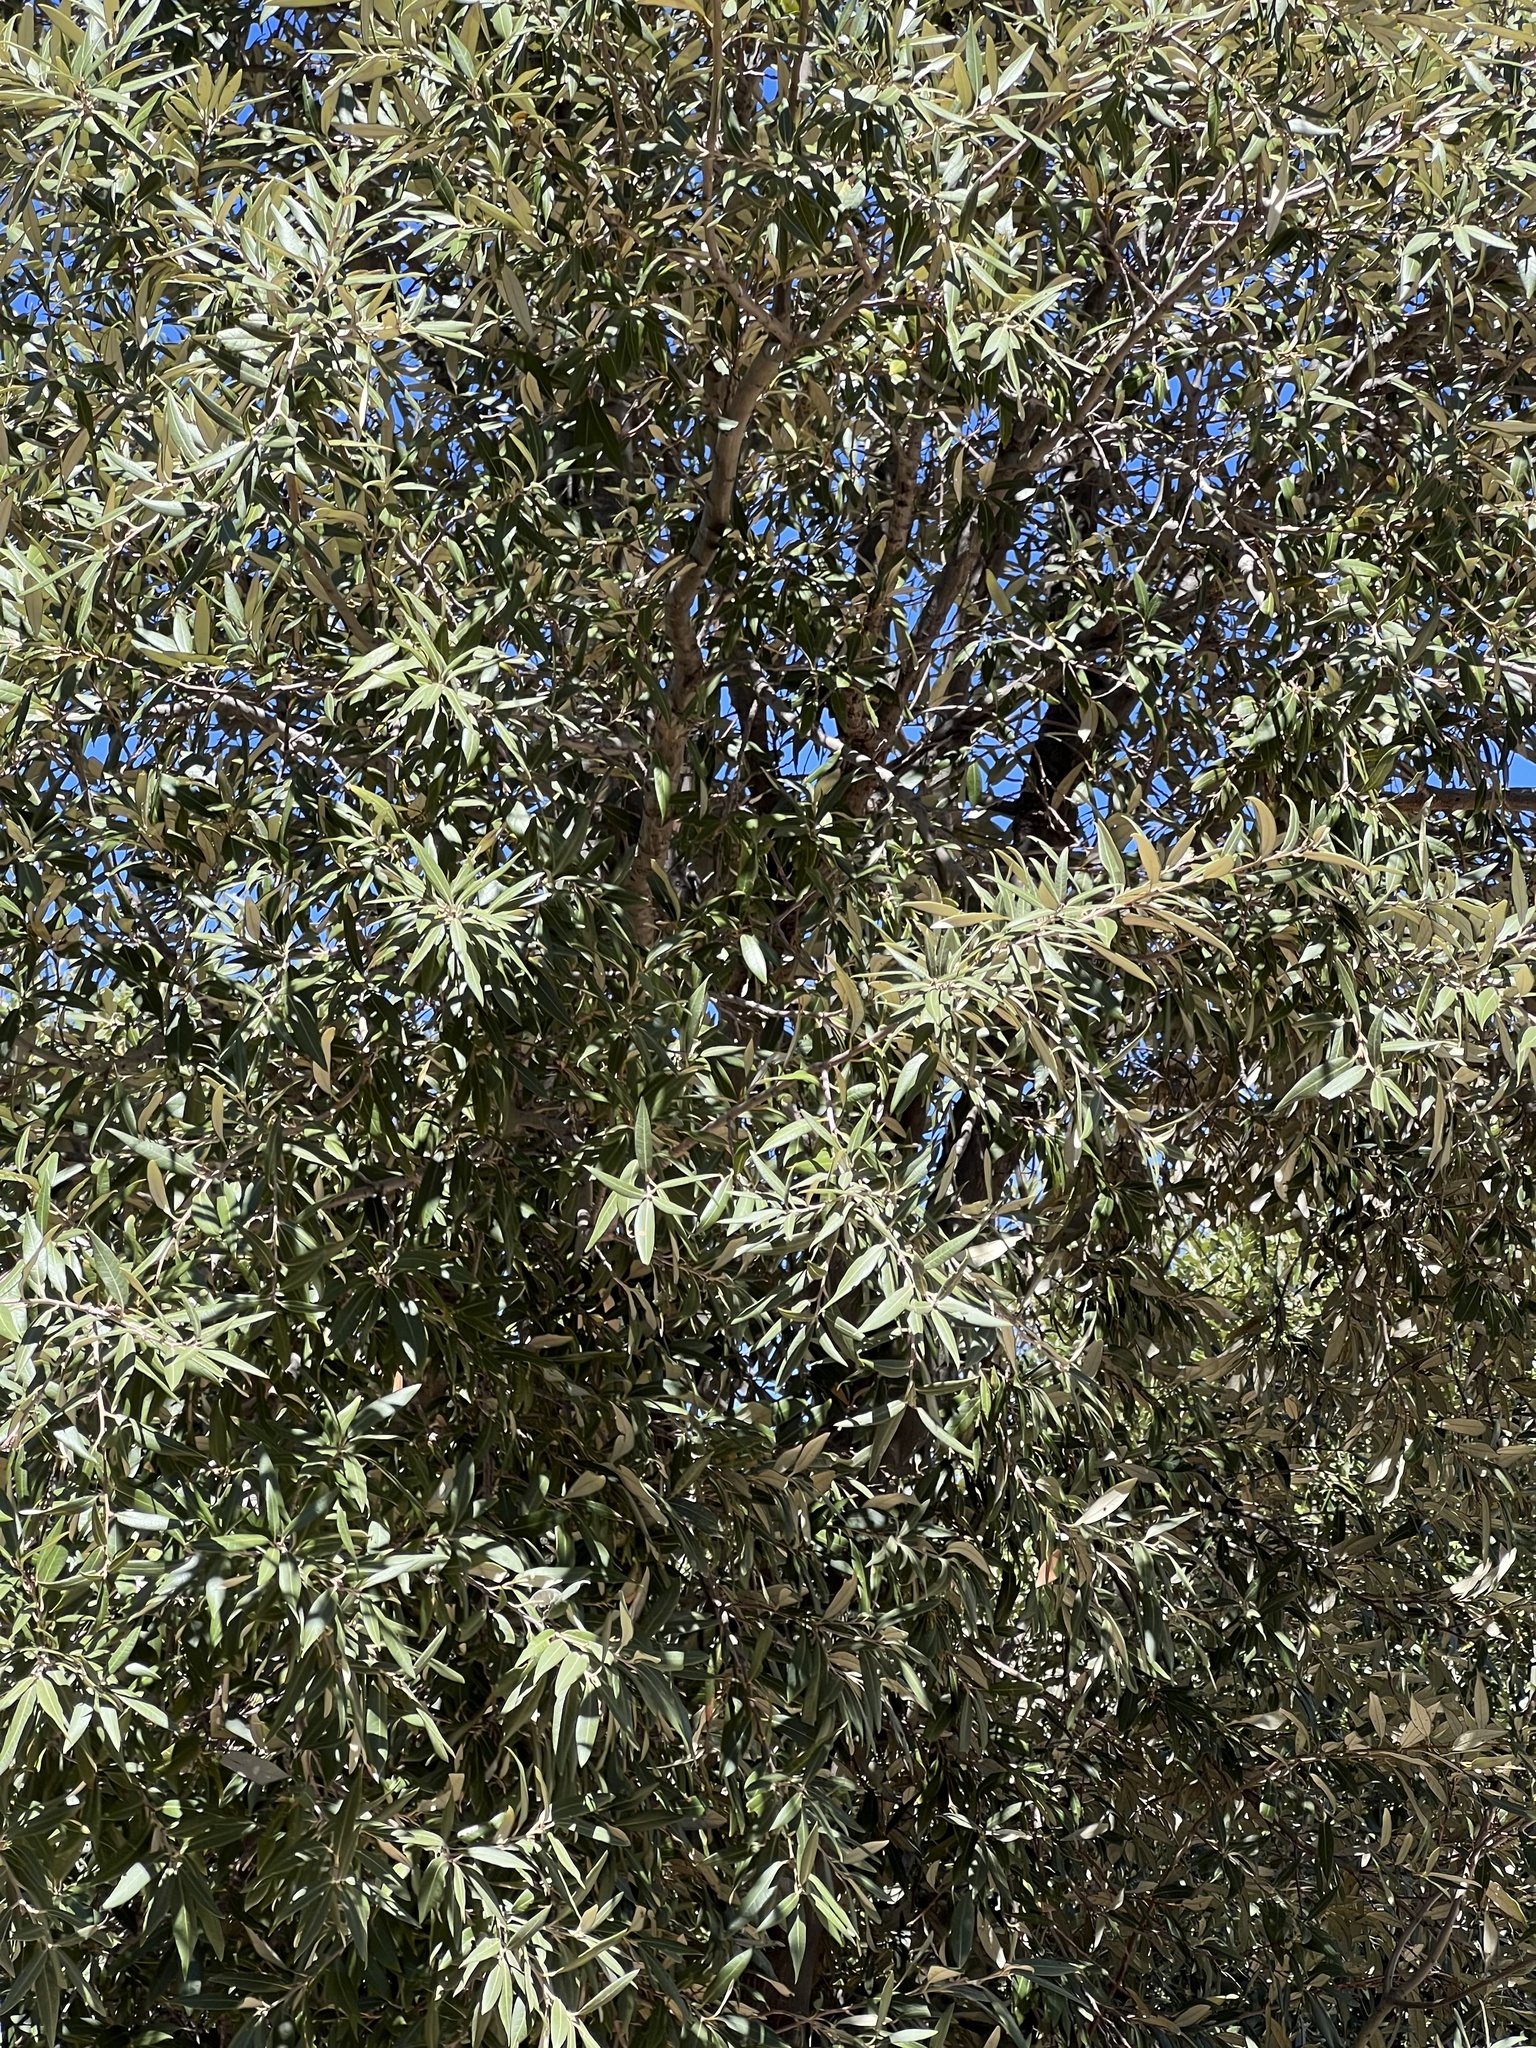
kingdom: Plantae
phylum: Tracheophyta
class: Magnoliopsida
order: Fagales
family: Fagaceae
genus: Quercus
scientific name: Quercus hypoleucoides
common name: Silverleaf oak
